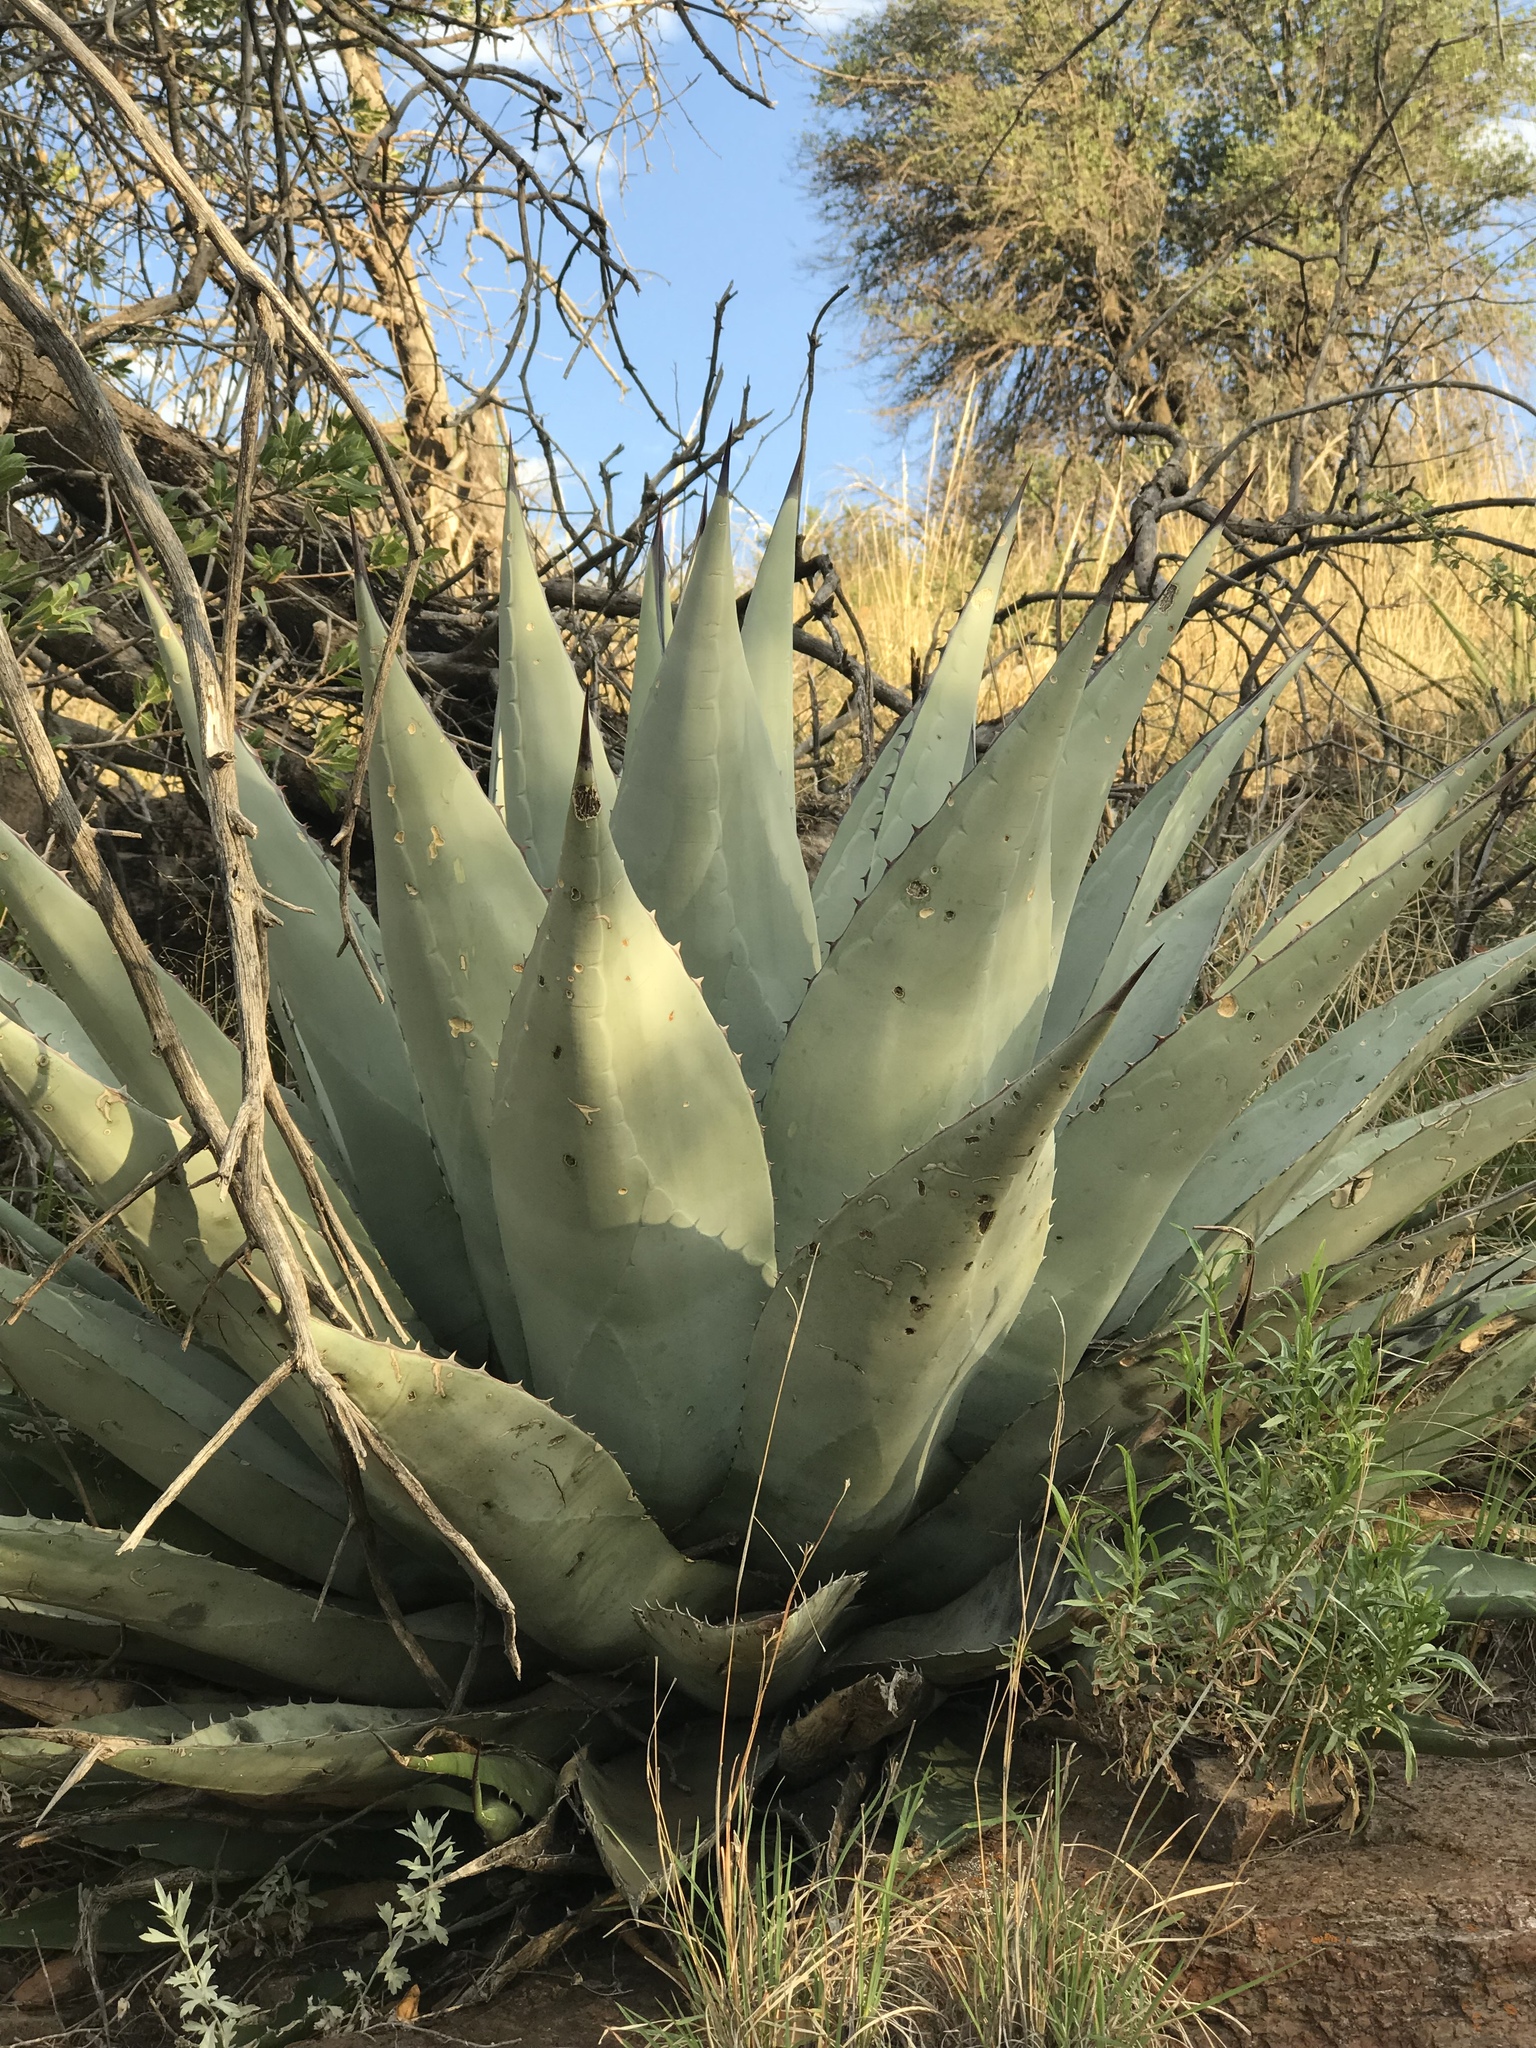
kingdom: Plantae
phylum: Tracheophyta
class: Liliopsida
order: Asparagales
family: Asparagaceae
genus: Agave
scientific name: Agave havardiana
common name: Havard agave
